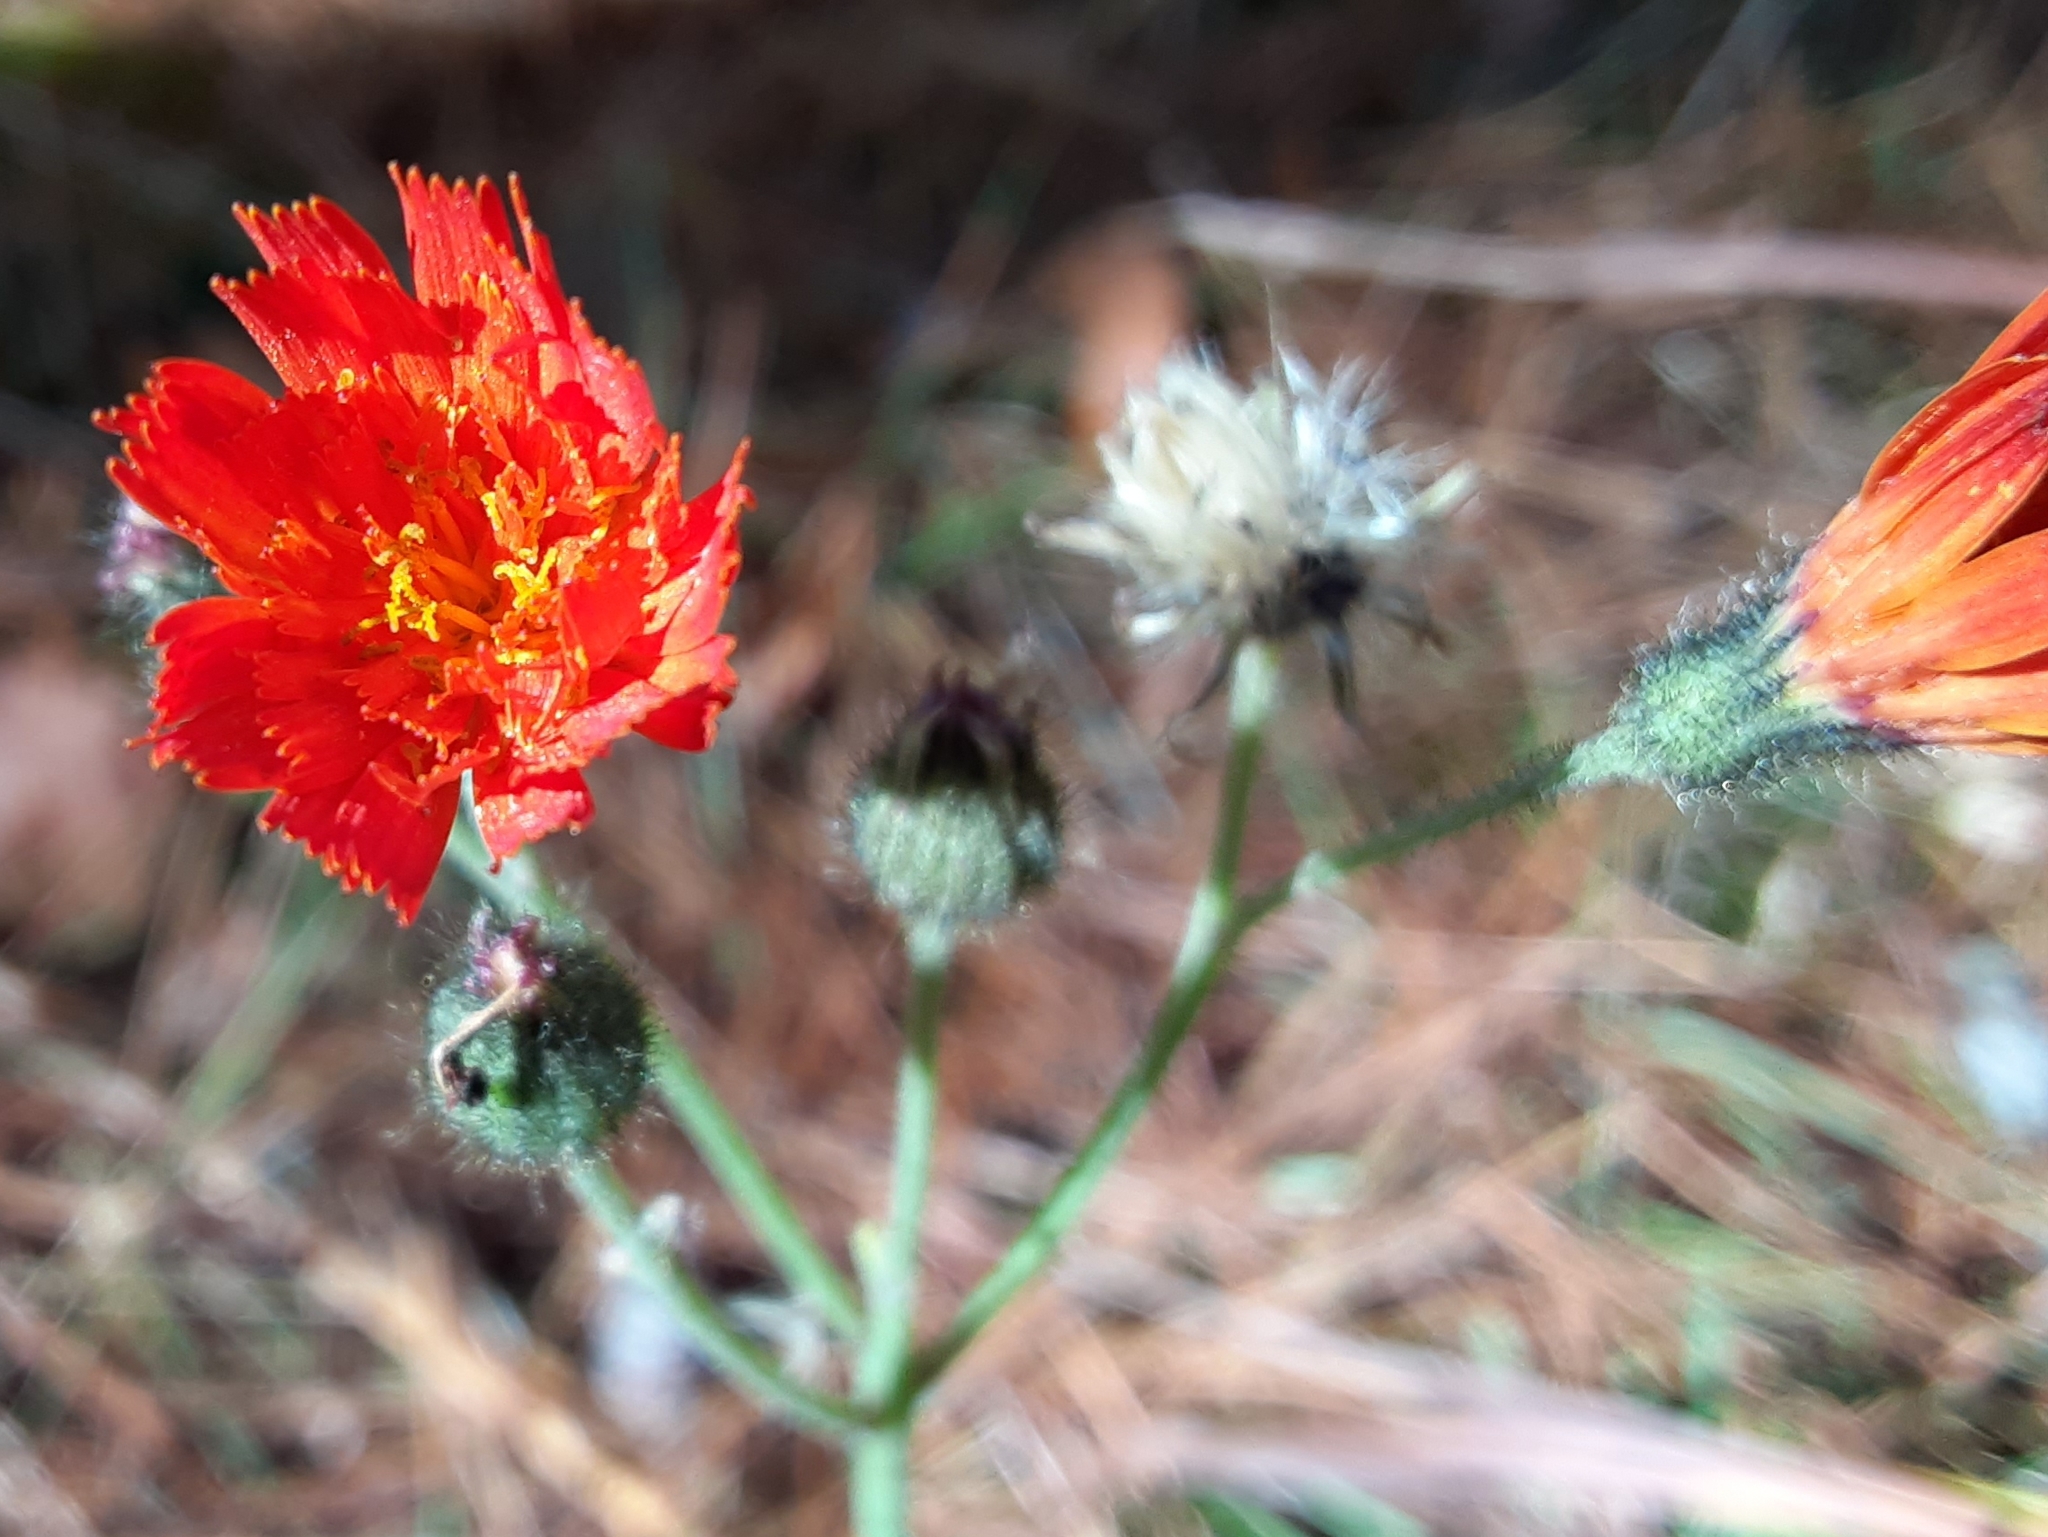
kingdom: Plantae
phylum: Tracheophyta
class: Magnoliopsida
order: Asterales
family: Asteraceae
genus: Pilosella
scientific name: Pilosella aurantiaca
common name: Fox-and-cubs
